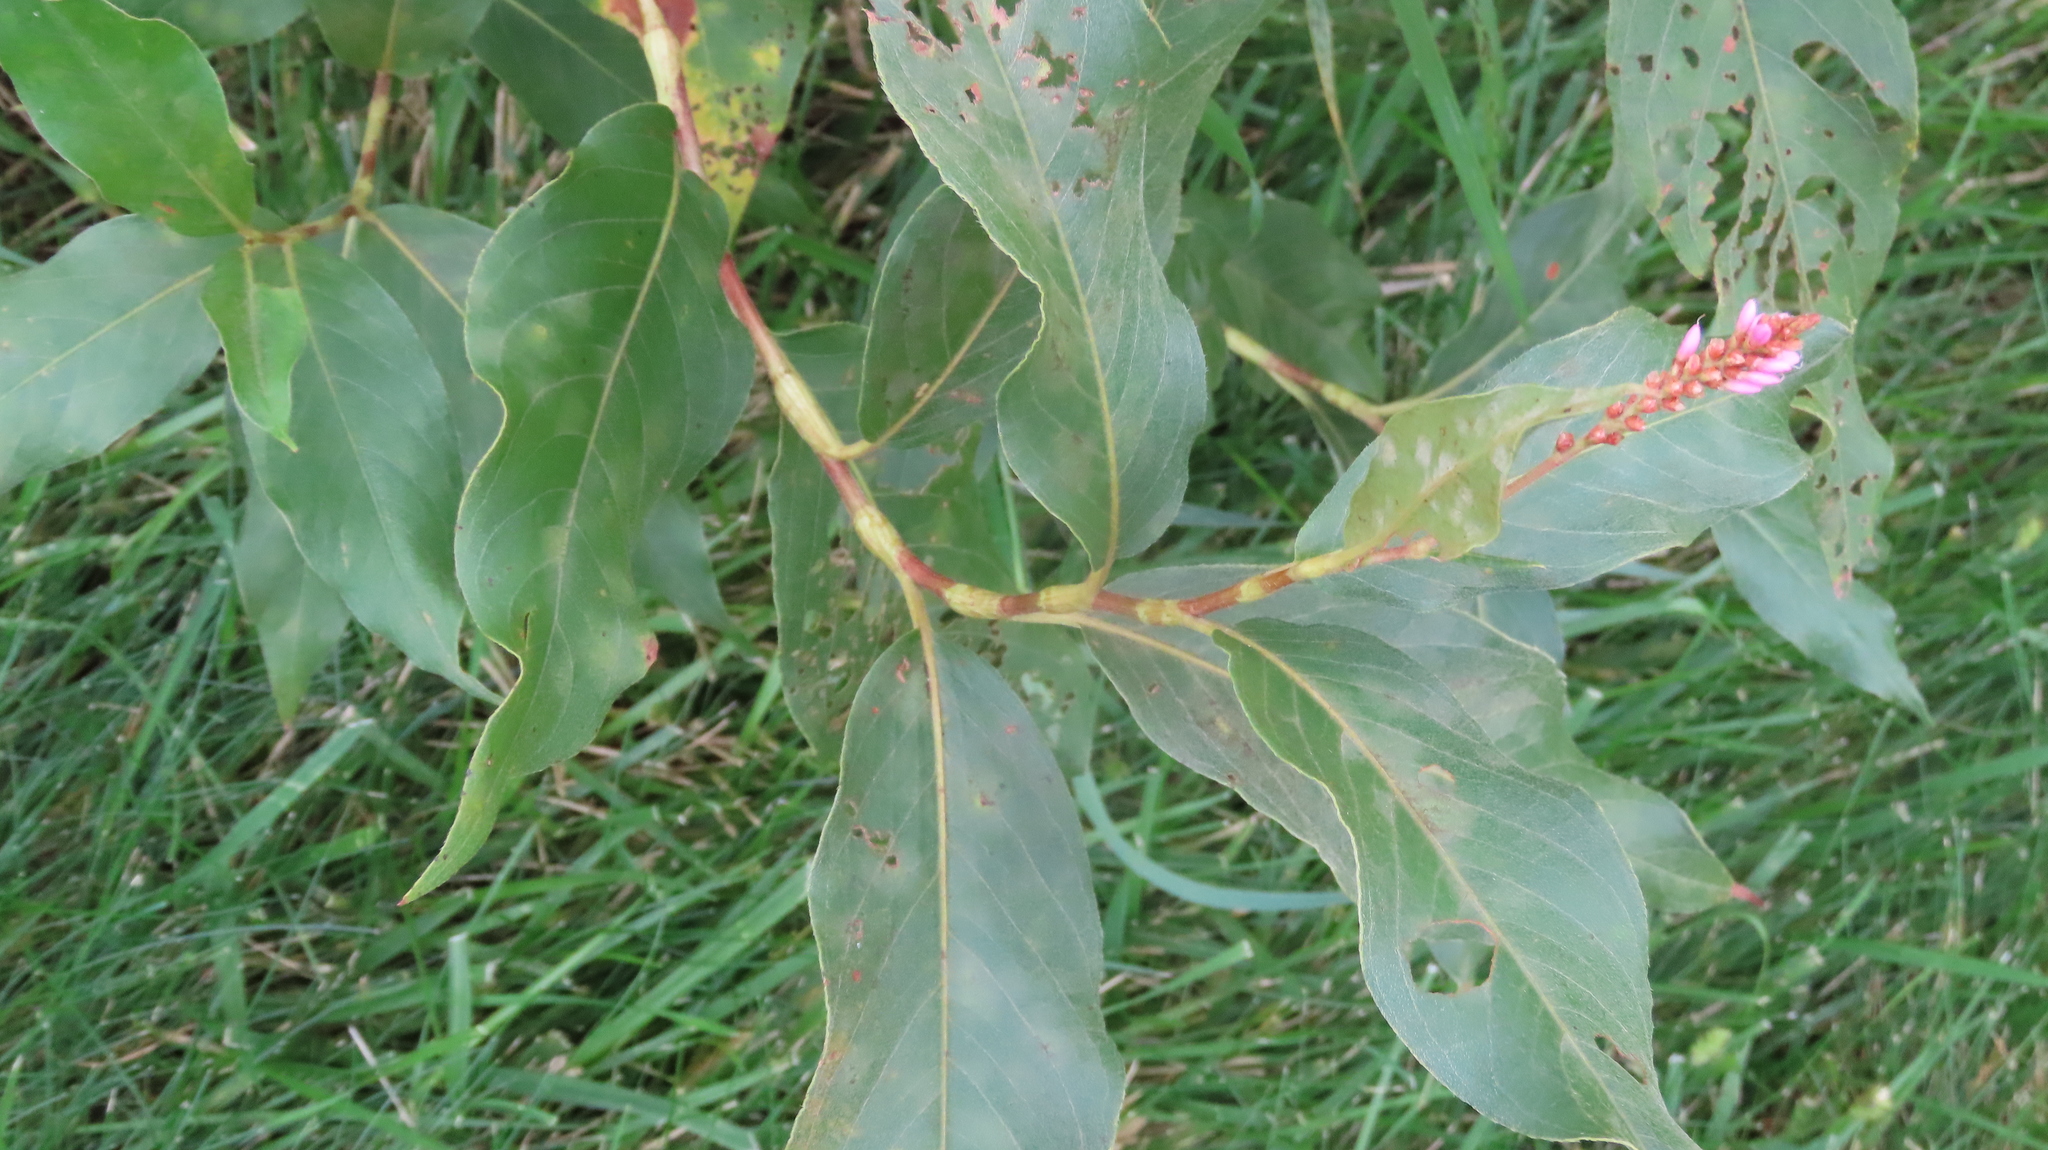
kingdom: Plantae
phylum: Tracheophyta
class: Magnoliopsida
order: Caryophyllales
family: Polygonaceae
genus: Persicaria
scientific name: Persicaria amphibia
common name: Amphibious bistort
